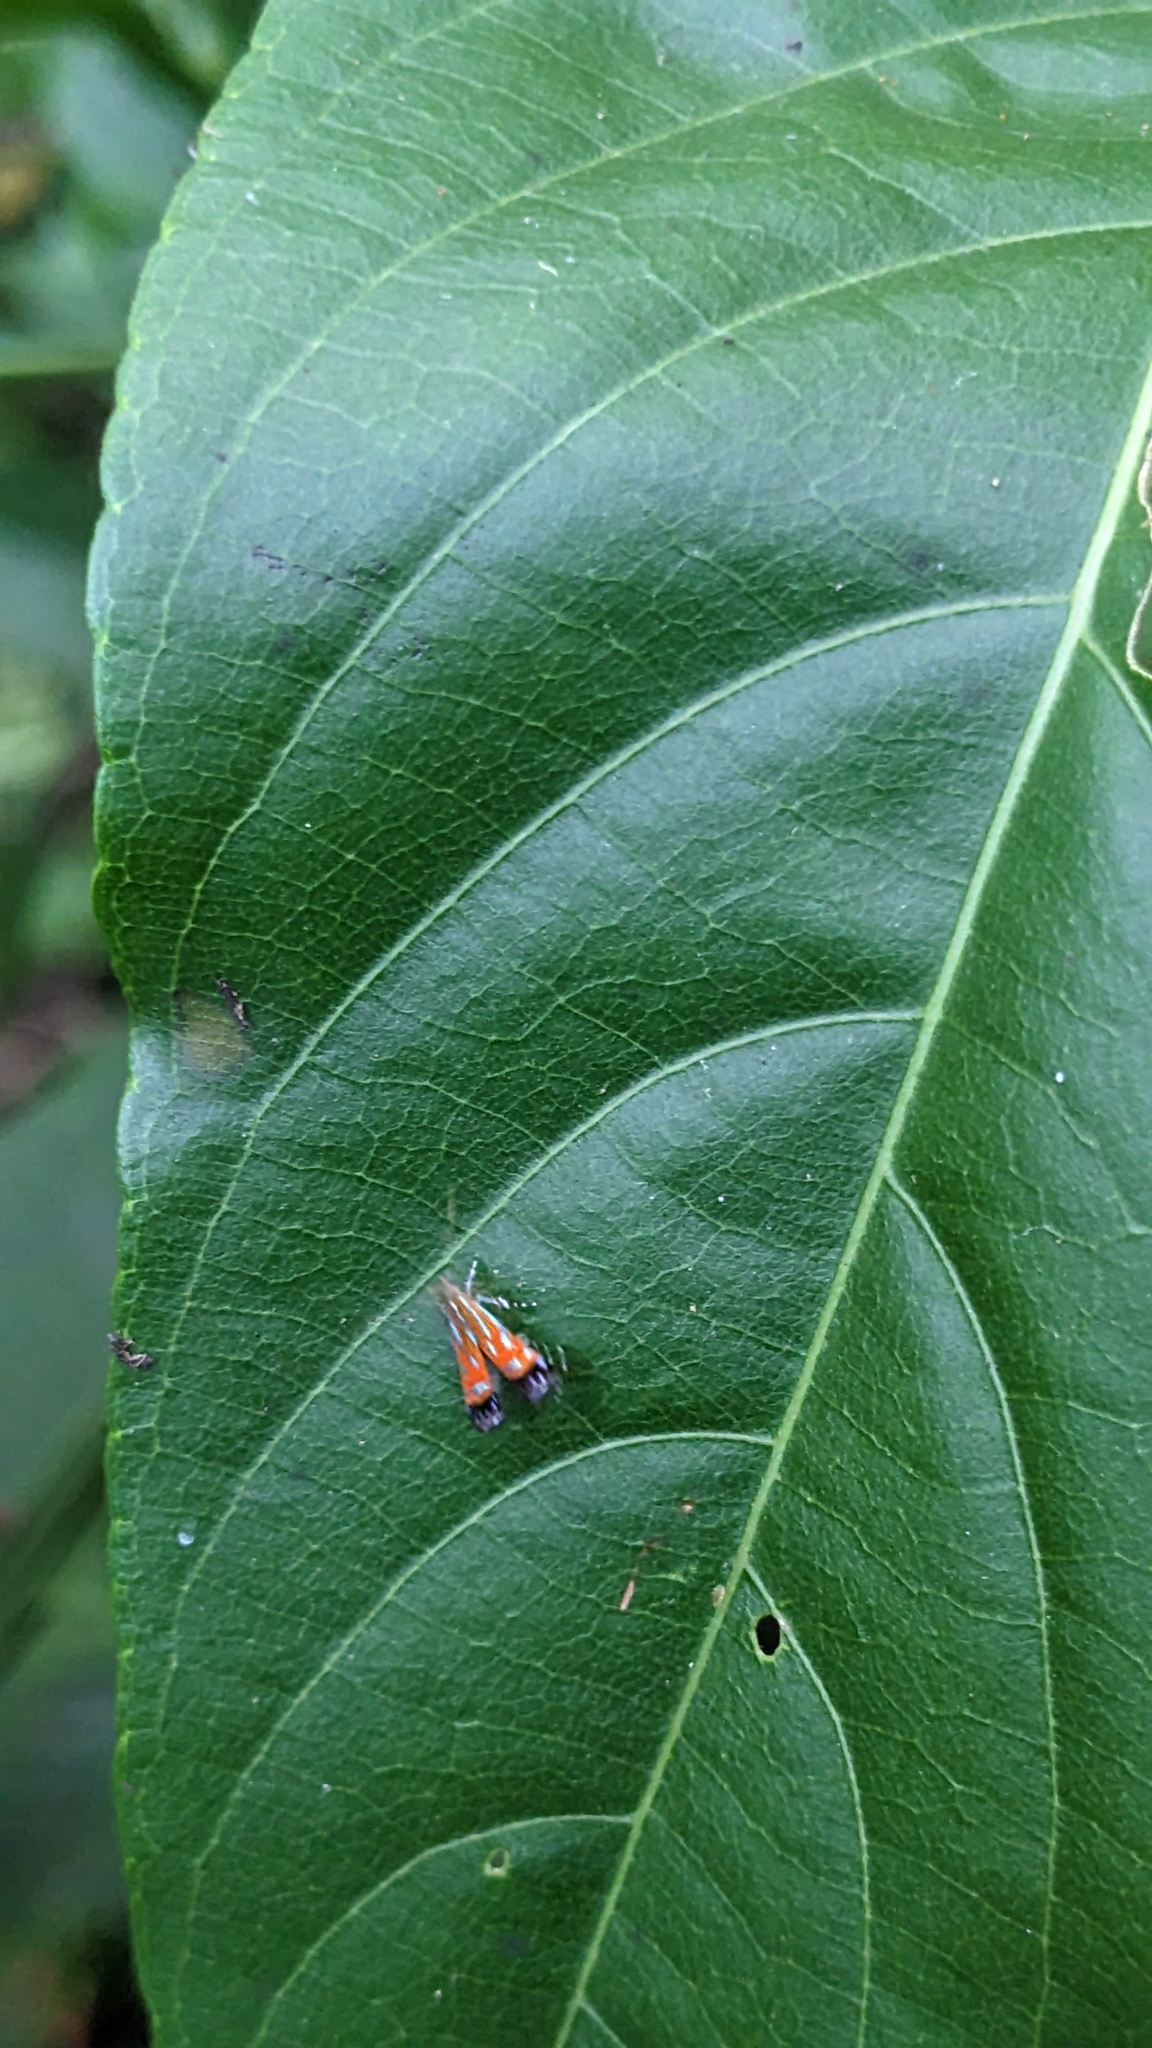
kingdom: Animalia
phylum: Arthropoda
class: Insecta
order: Lepidoptera
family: Gelechiidae
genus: Tricyanaula
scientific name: Tricyanaula aurantiaca
